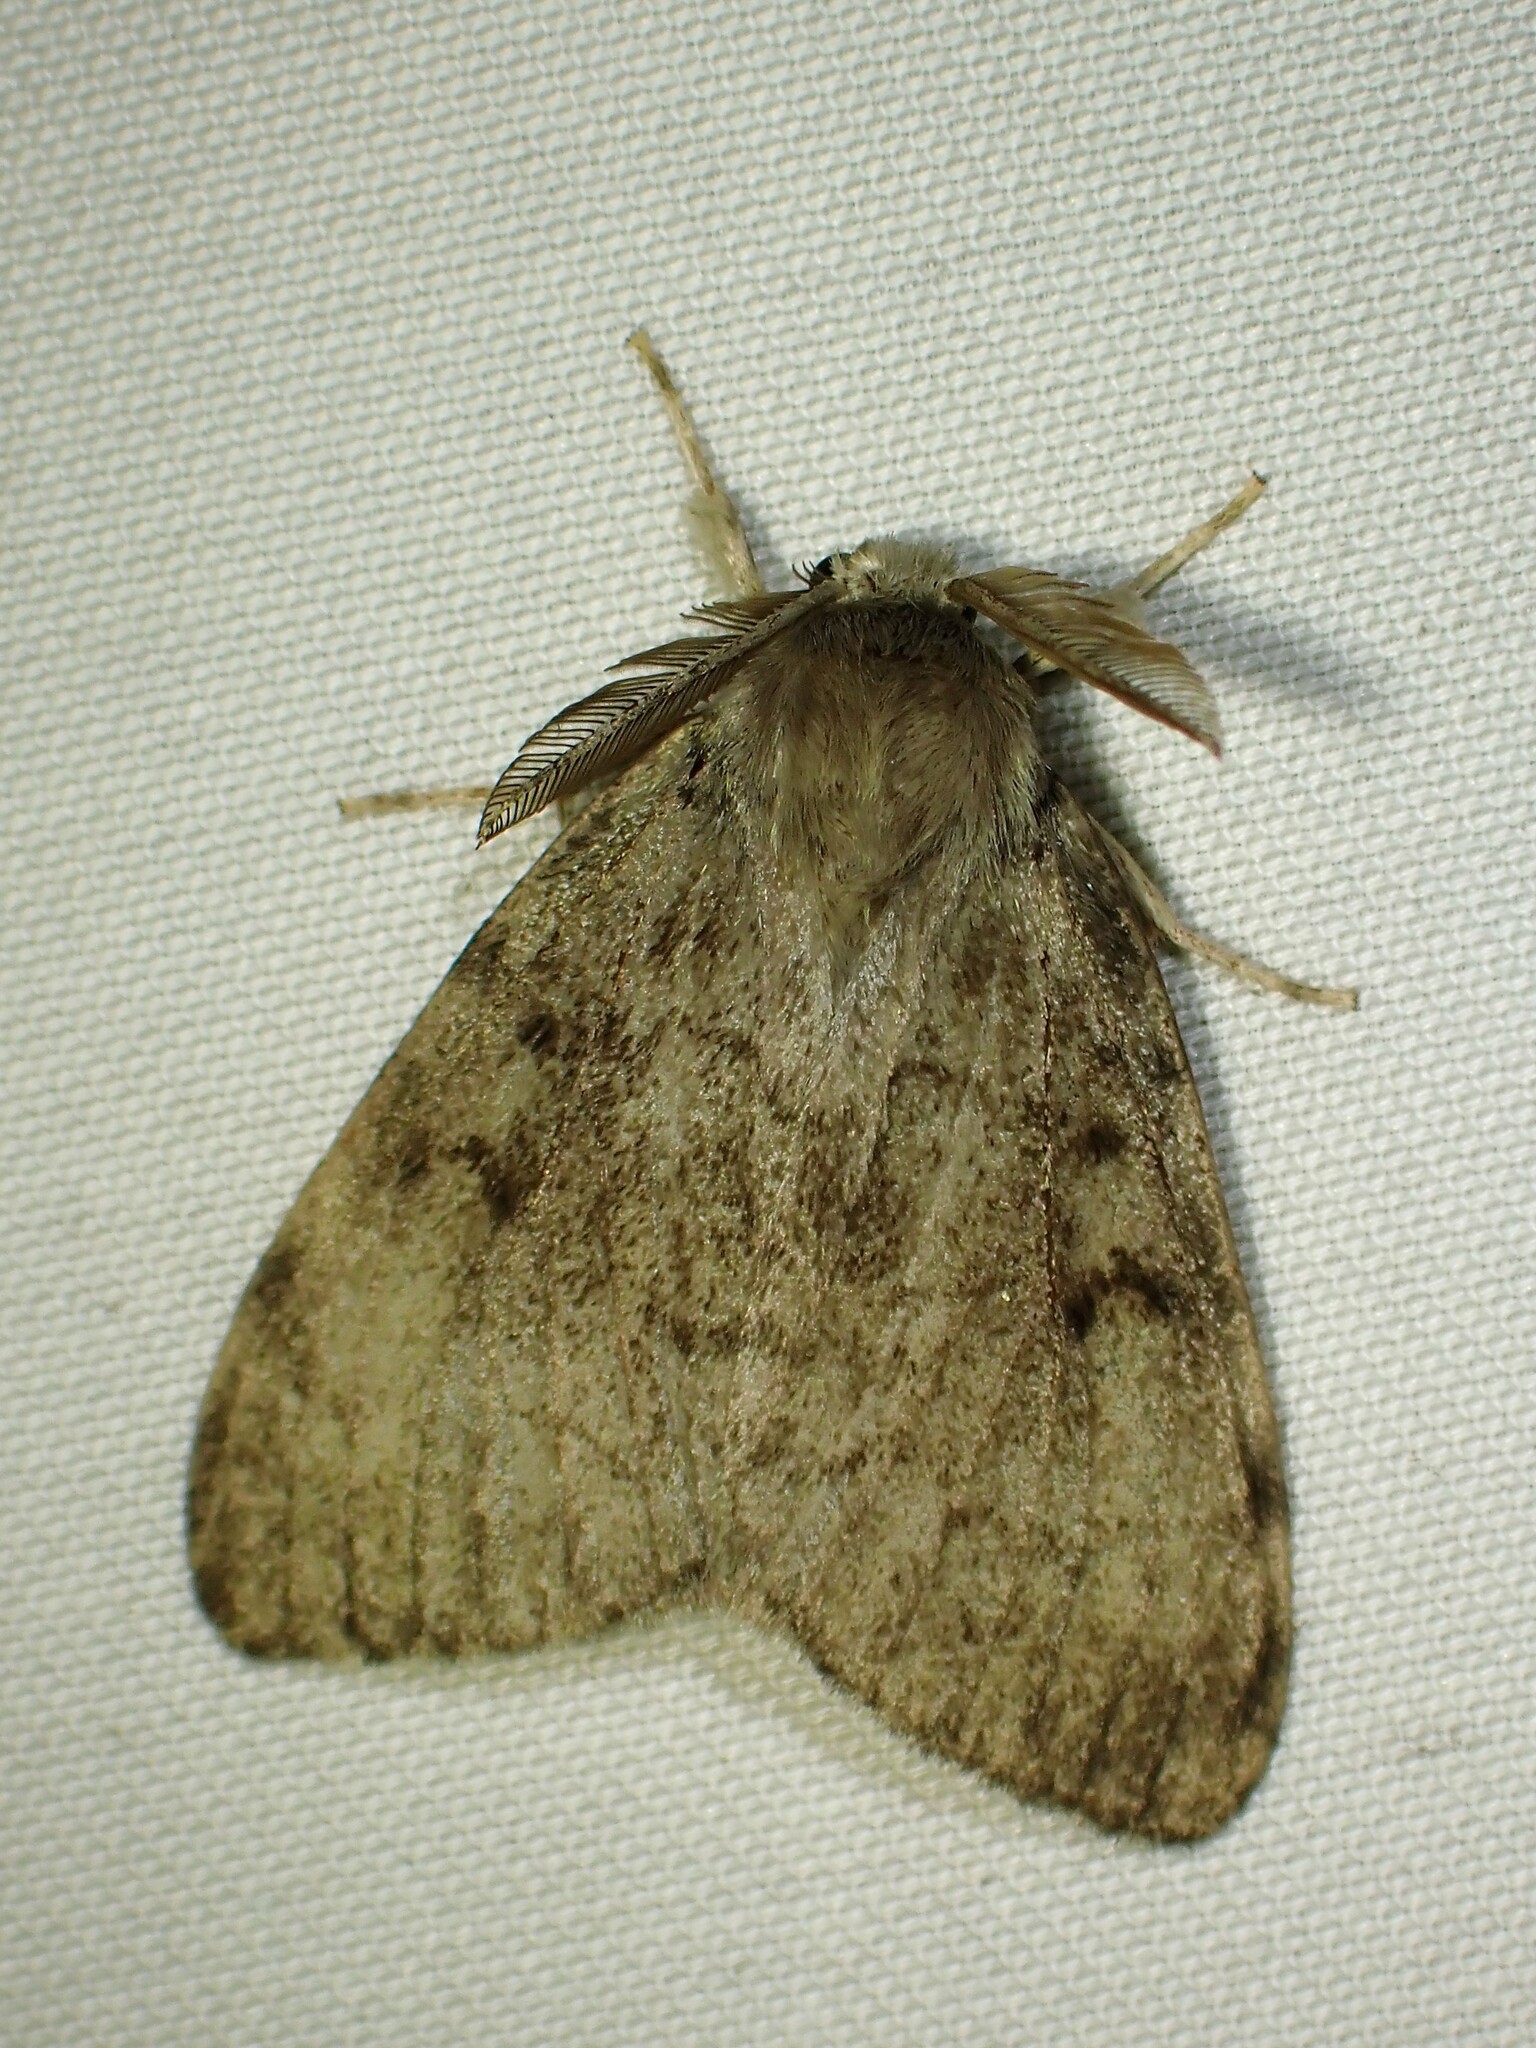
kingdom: Animalia
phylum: Arthropoda
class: Insecta
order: Lepidoptera
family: Erebidae
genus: Lymantria
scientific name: Lymantria dispar
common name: Gypsy moth
